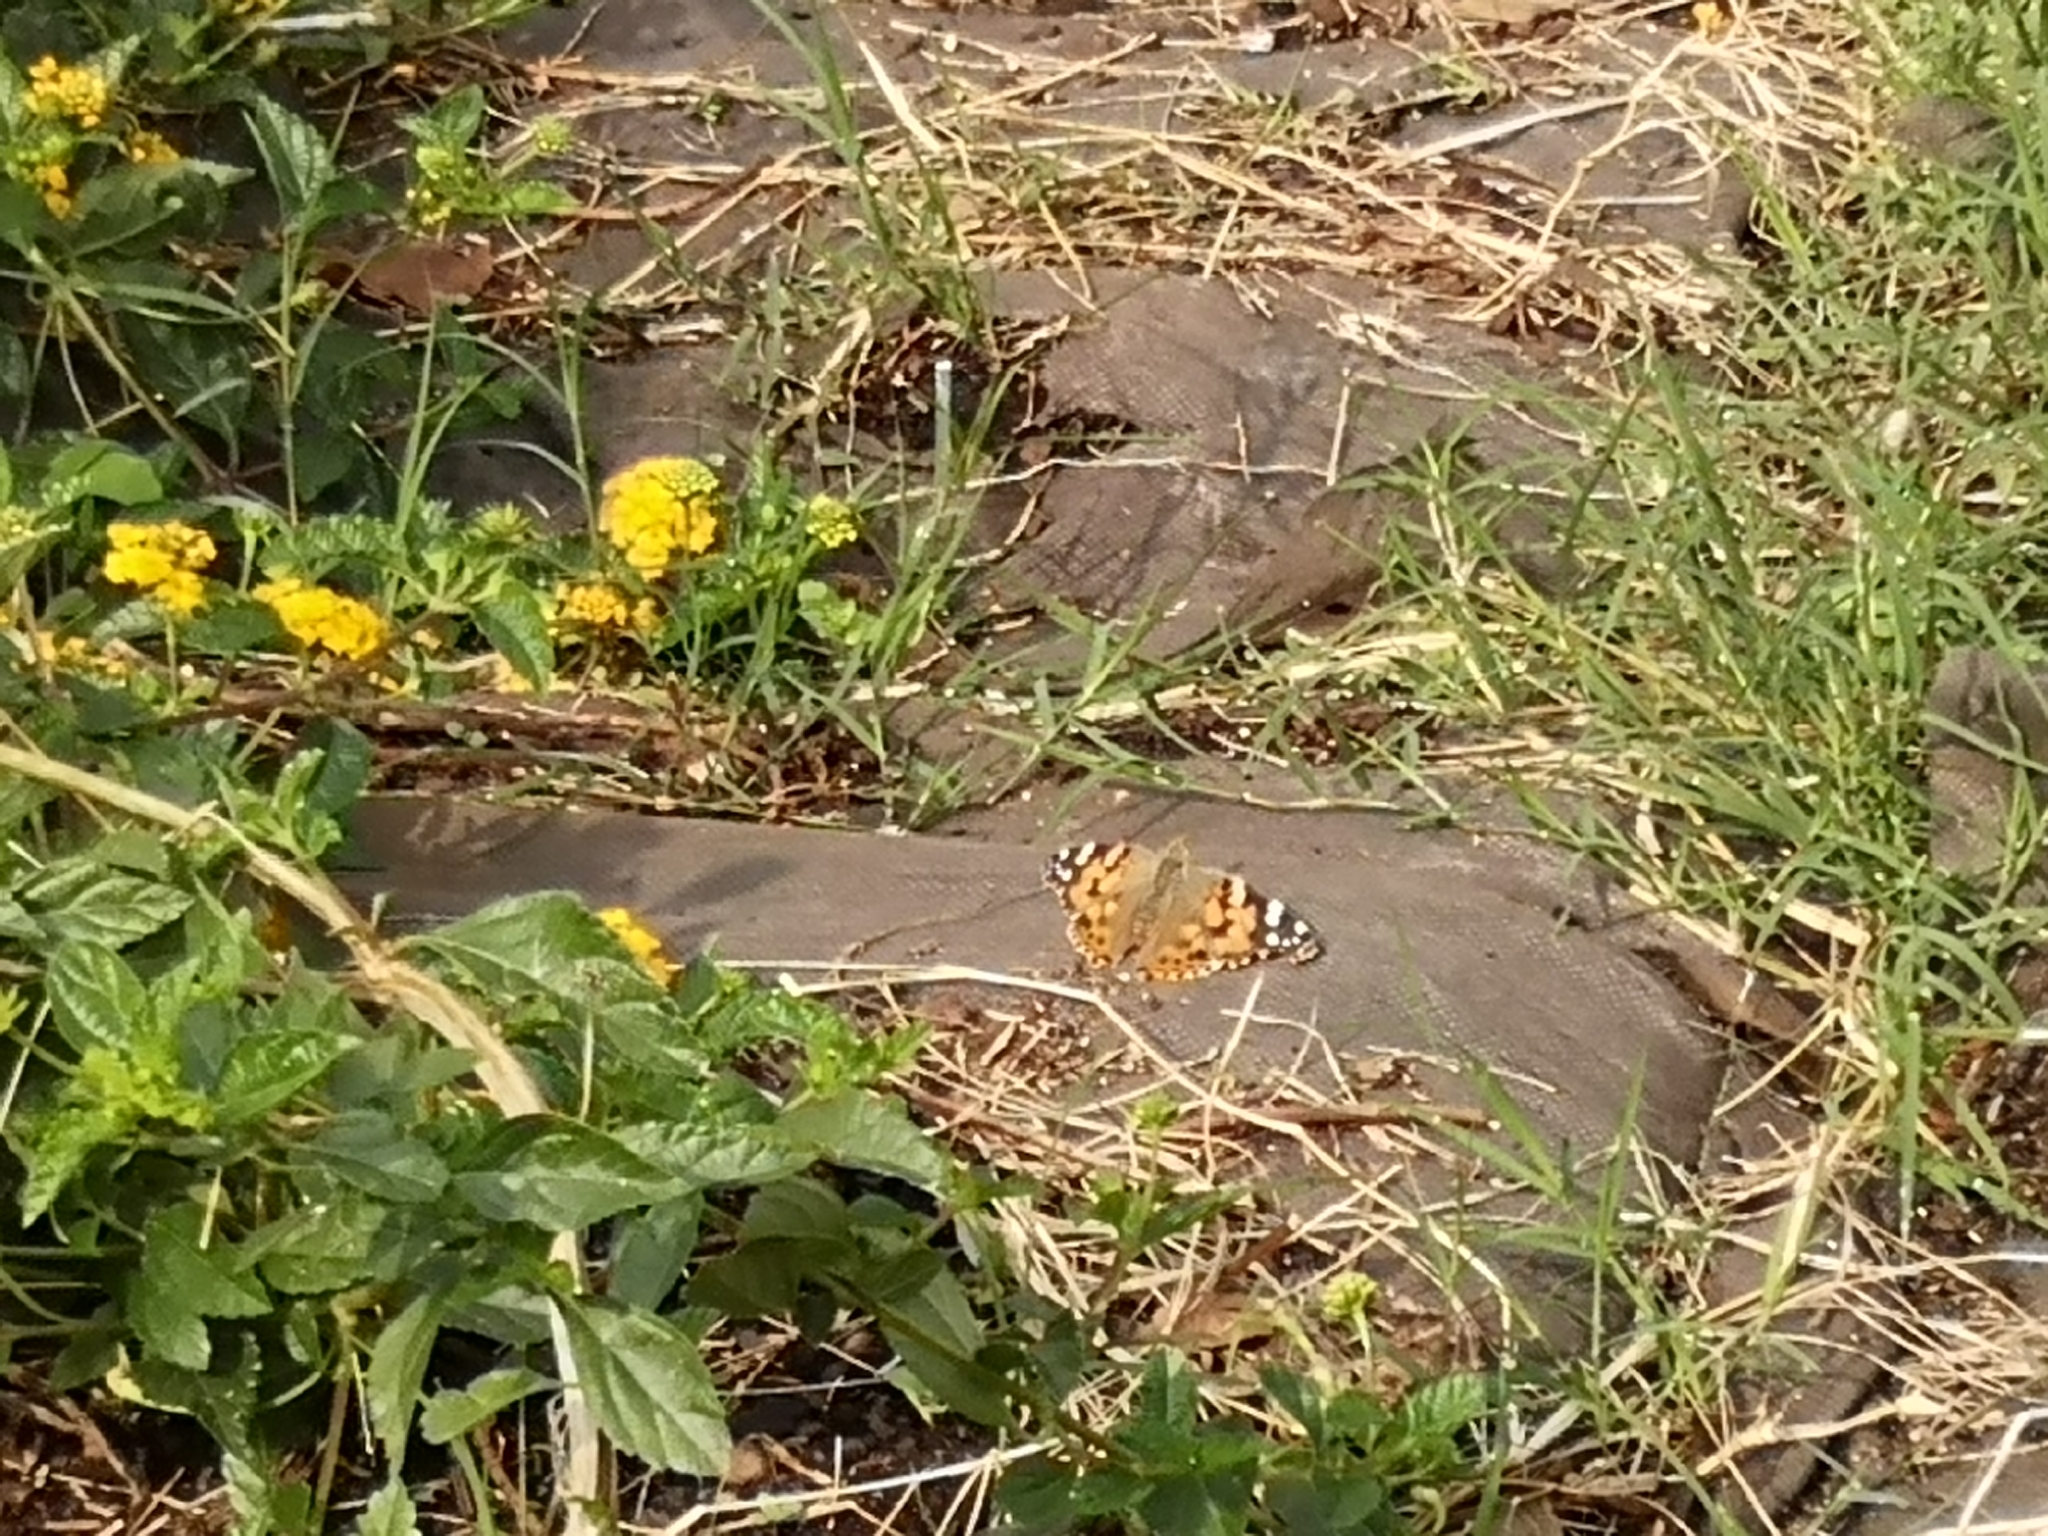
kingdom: Animalia
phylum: Arthropoda
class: Insecta
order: Lepidoptera
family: Nymphalidae
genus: Vanessa
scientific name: Vanessa cardui
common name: Painted lady
